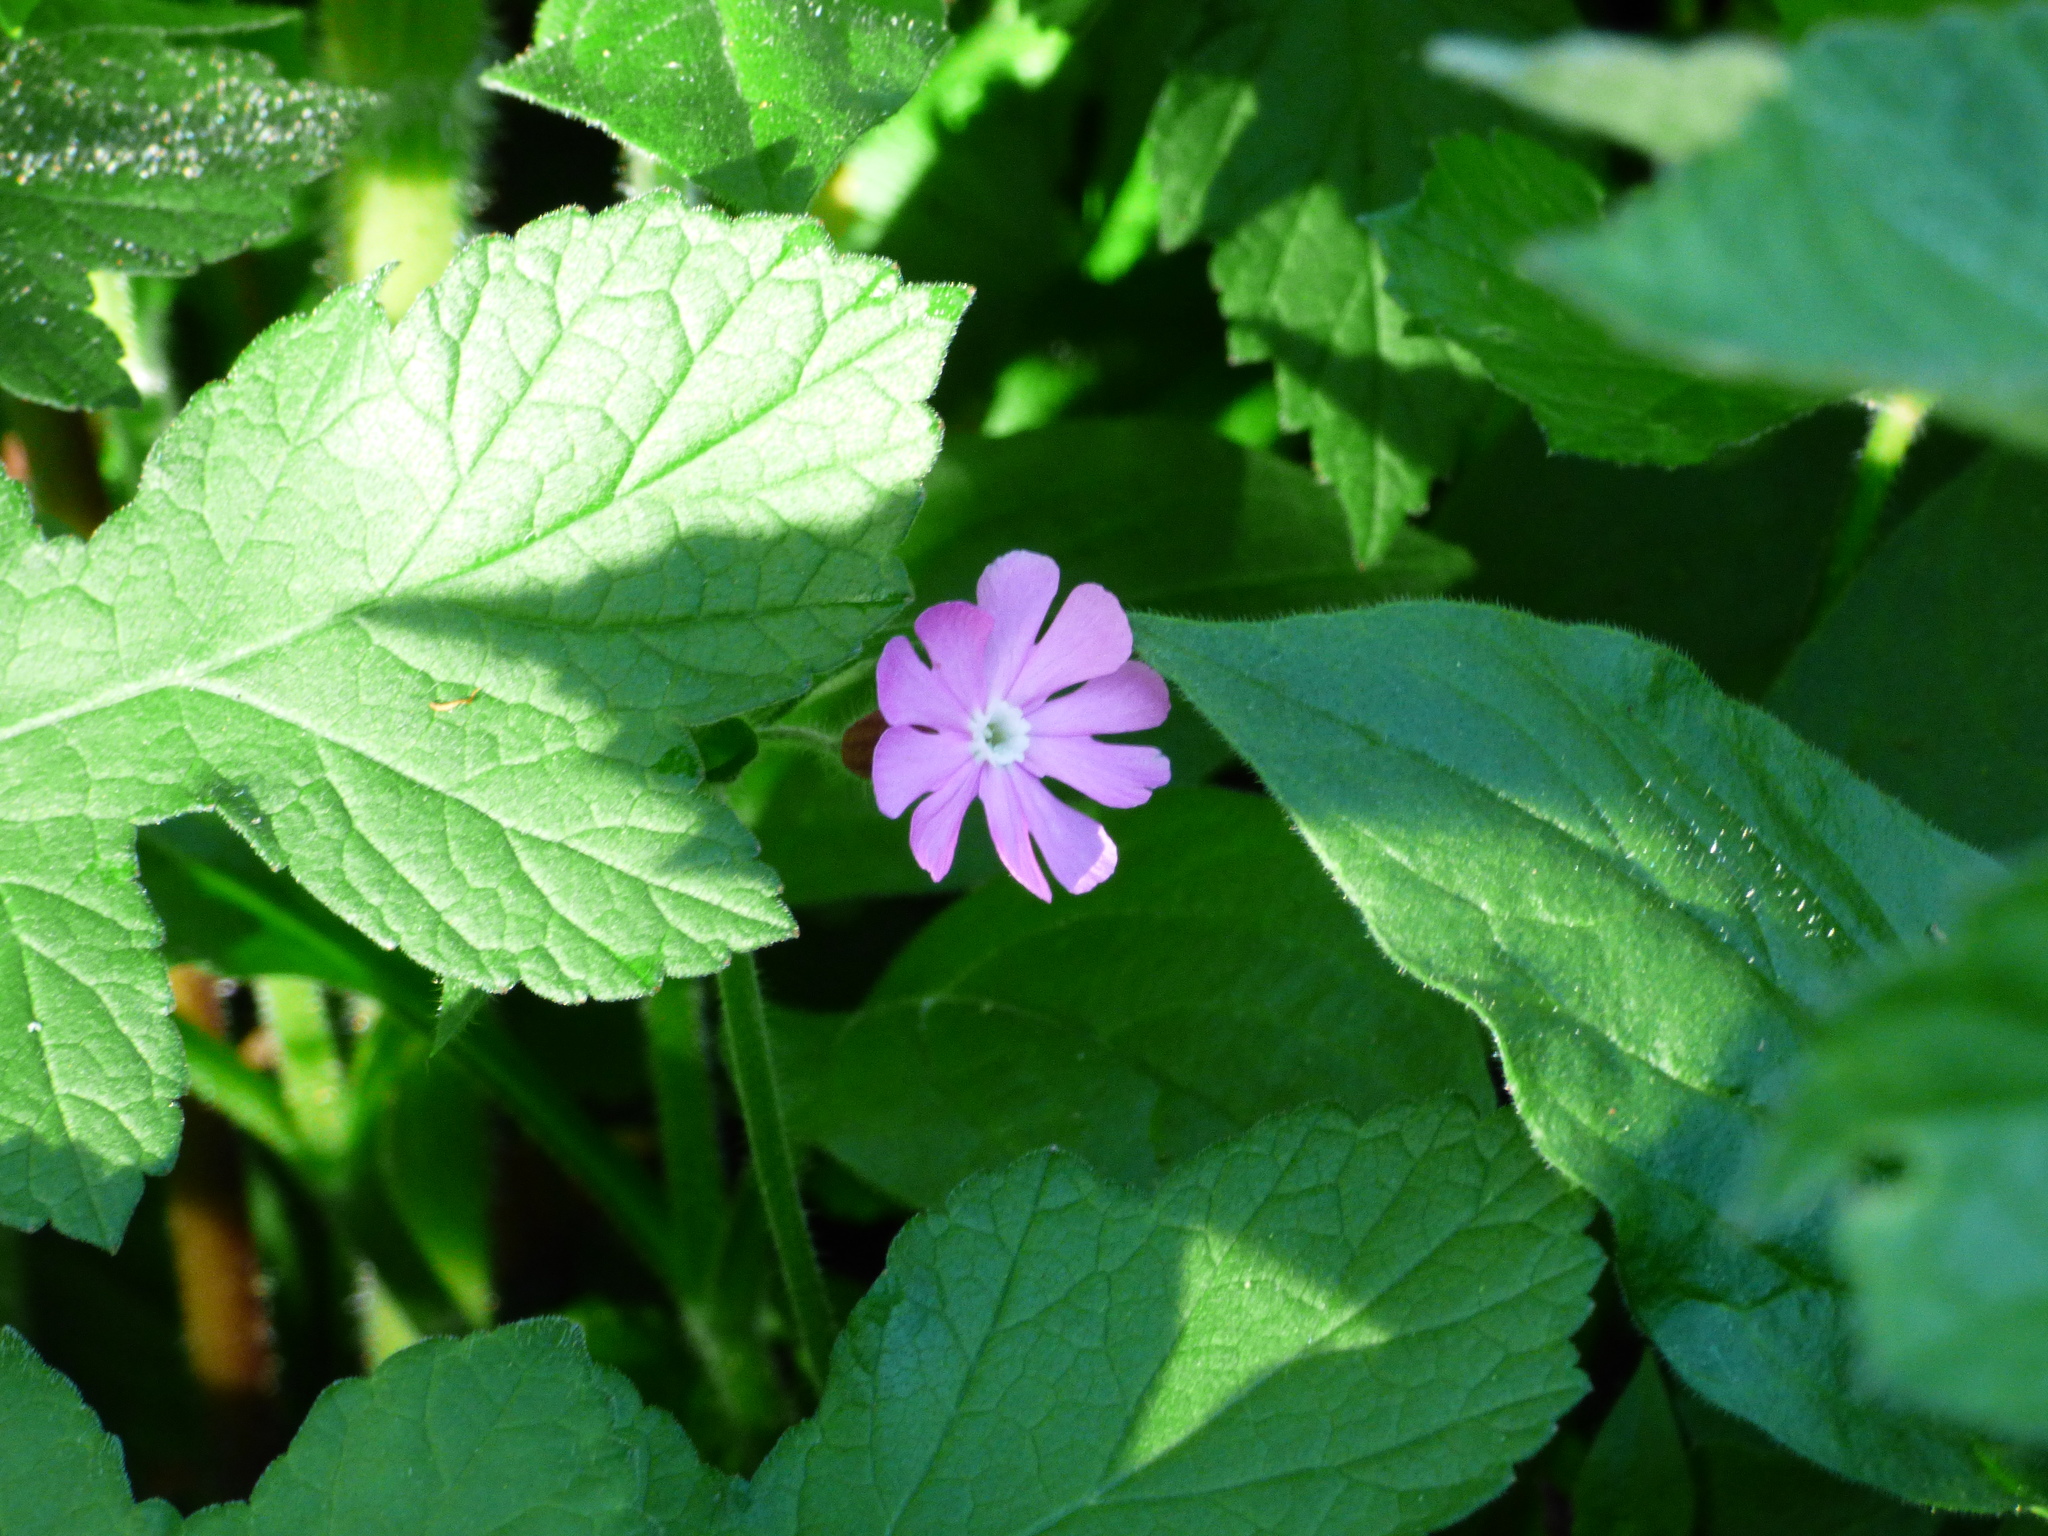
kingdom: Plantae
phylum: Tracheophyta
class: Magnoliopsida
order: Caryophyllales
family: Caryophyllaceae
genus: Silene
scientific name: Silene dioica
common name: Red campion
